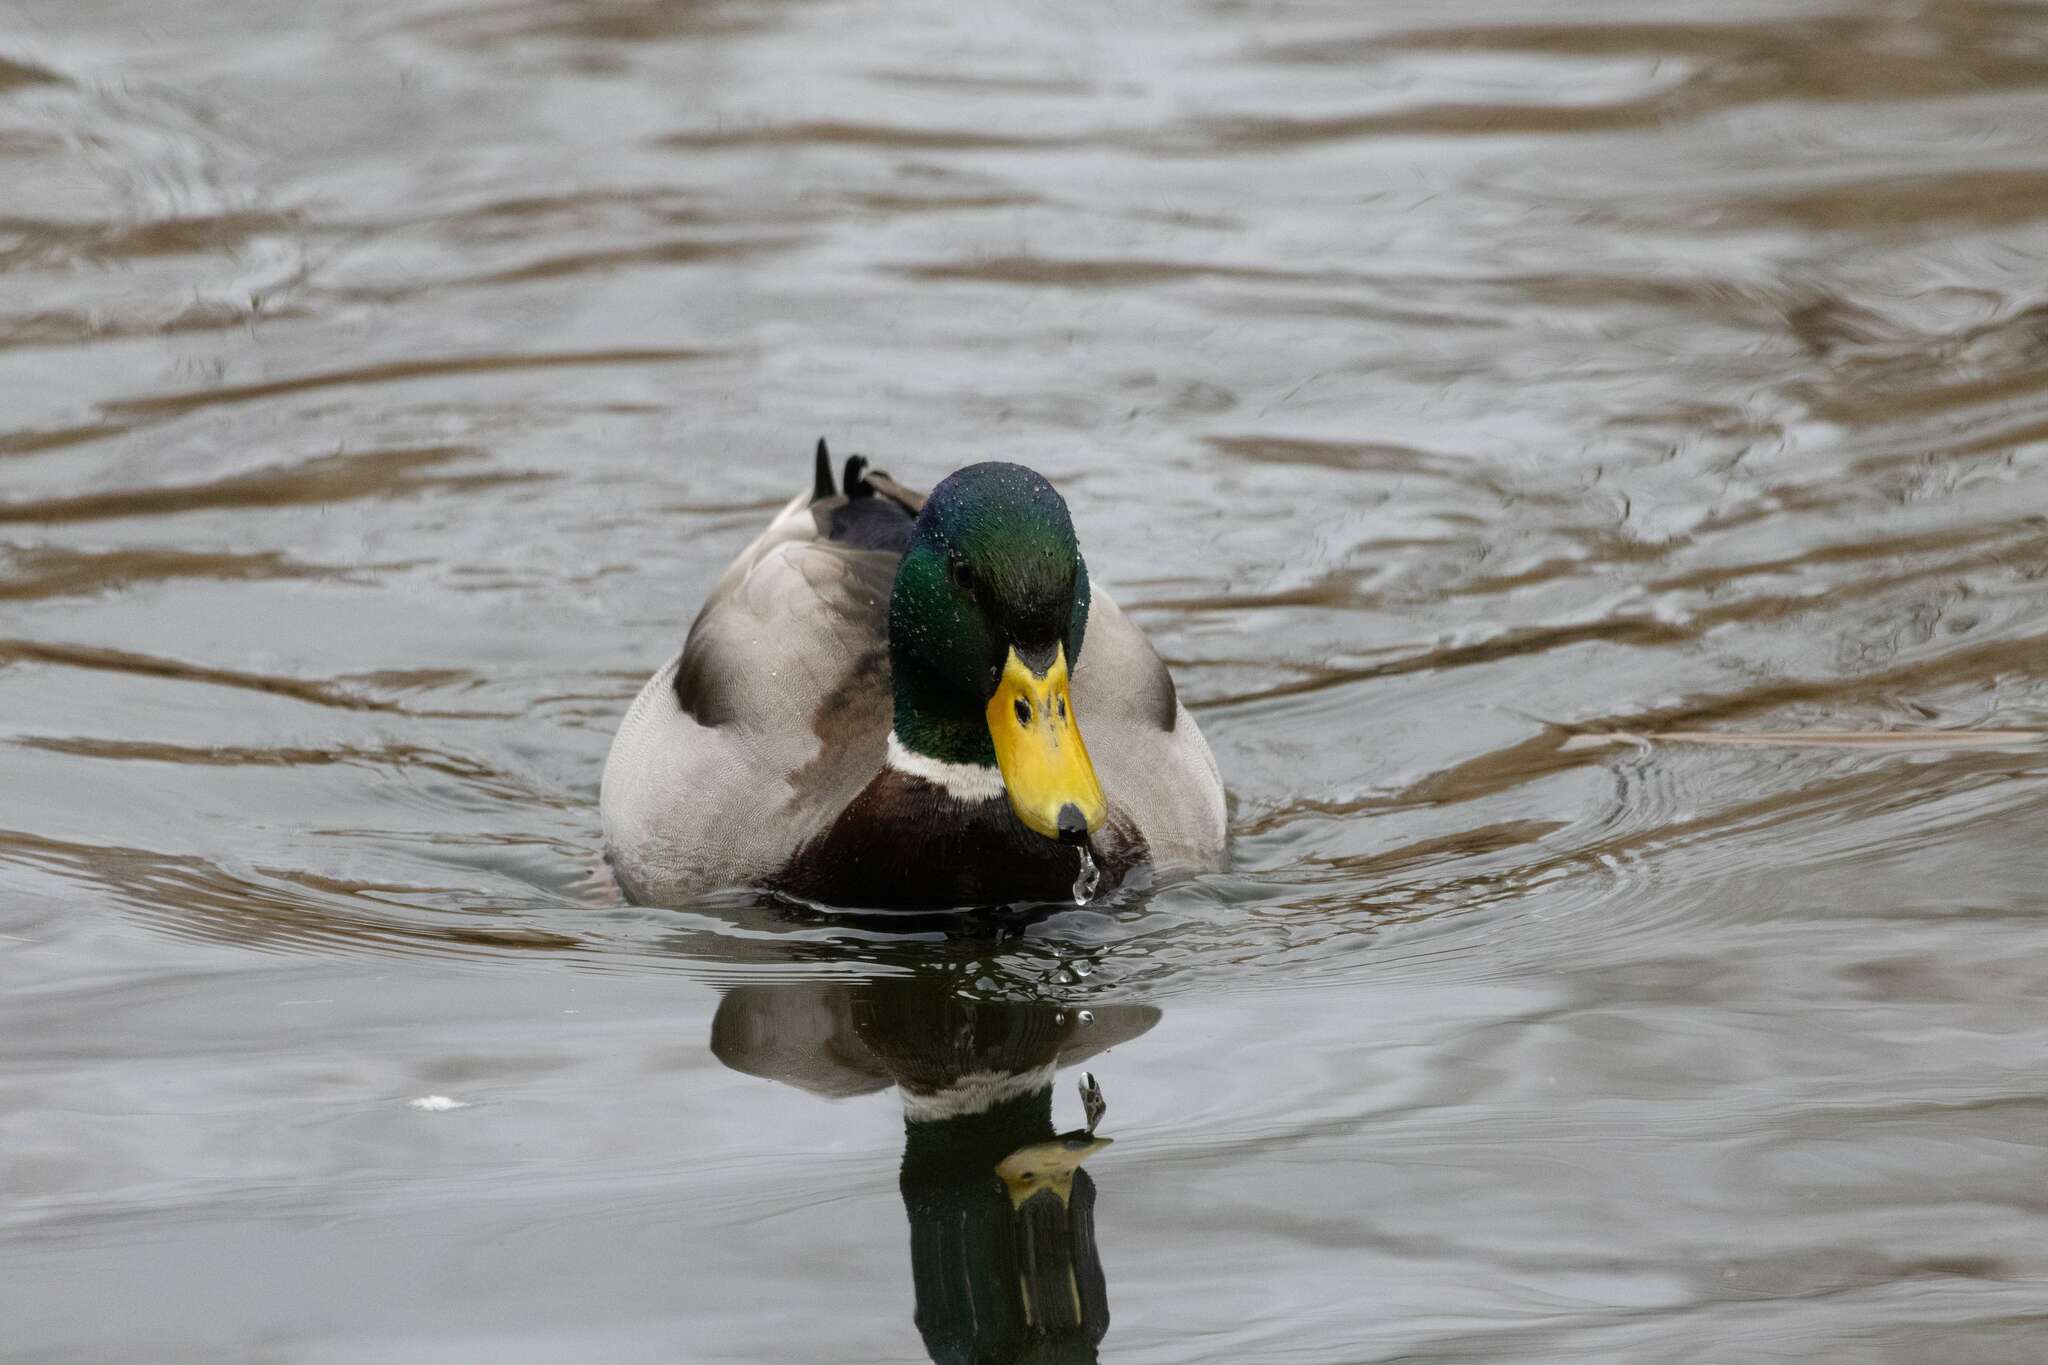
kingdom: Animalia
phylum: Chordata
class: Aves
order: Anseriformes
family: Anatidae
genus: Anas
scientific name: Anas platyrhynchos
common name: Mallard
